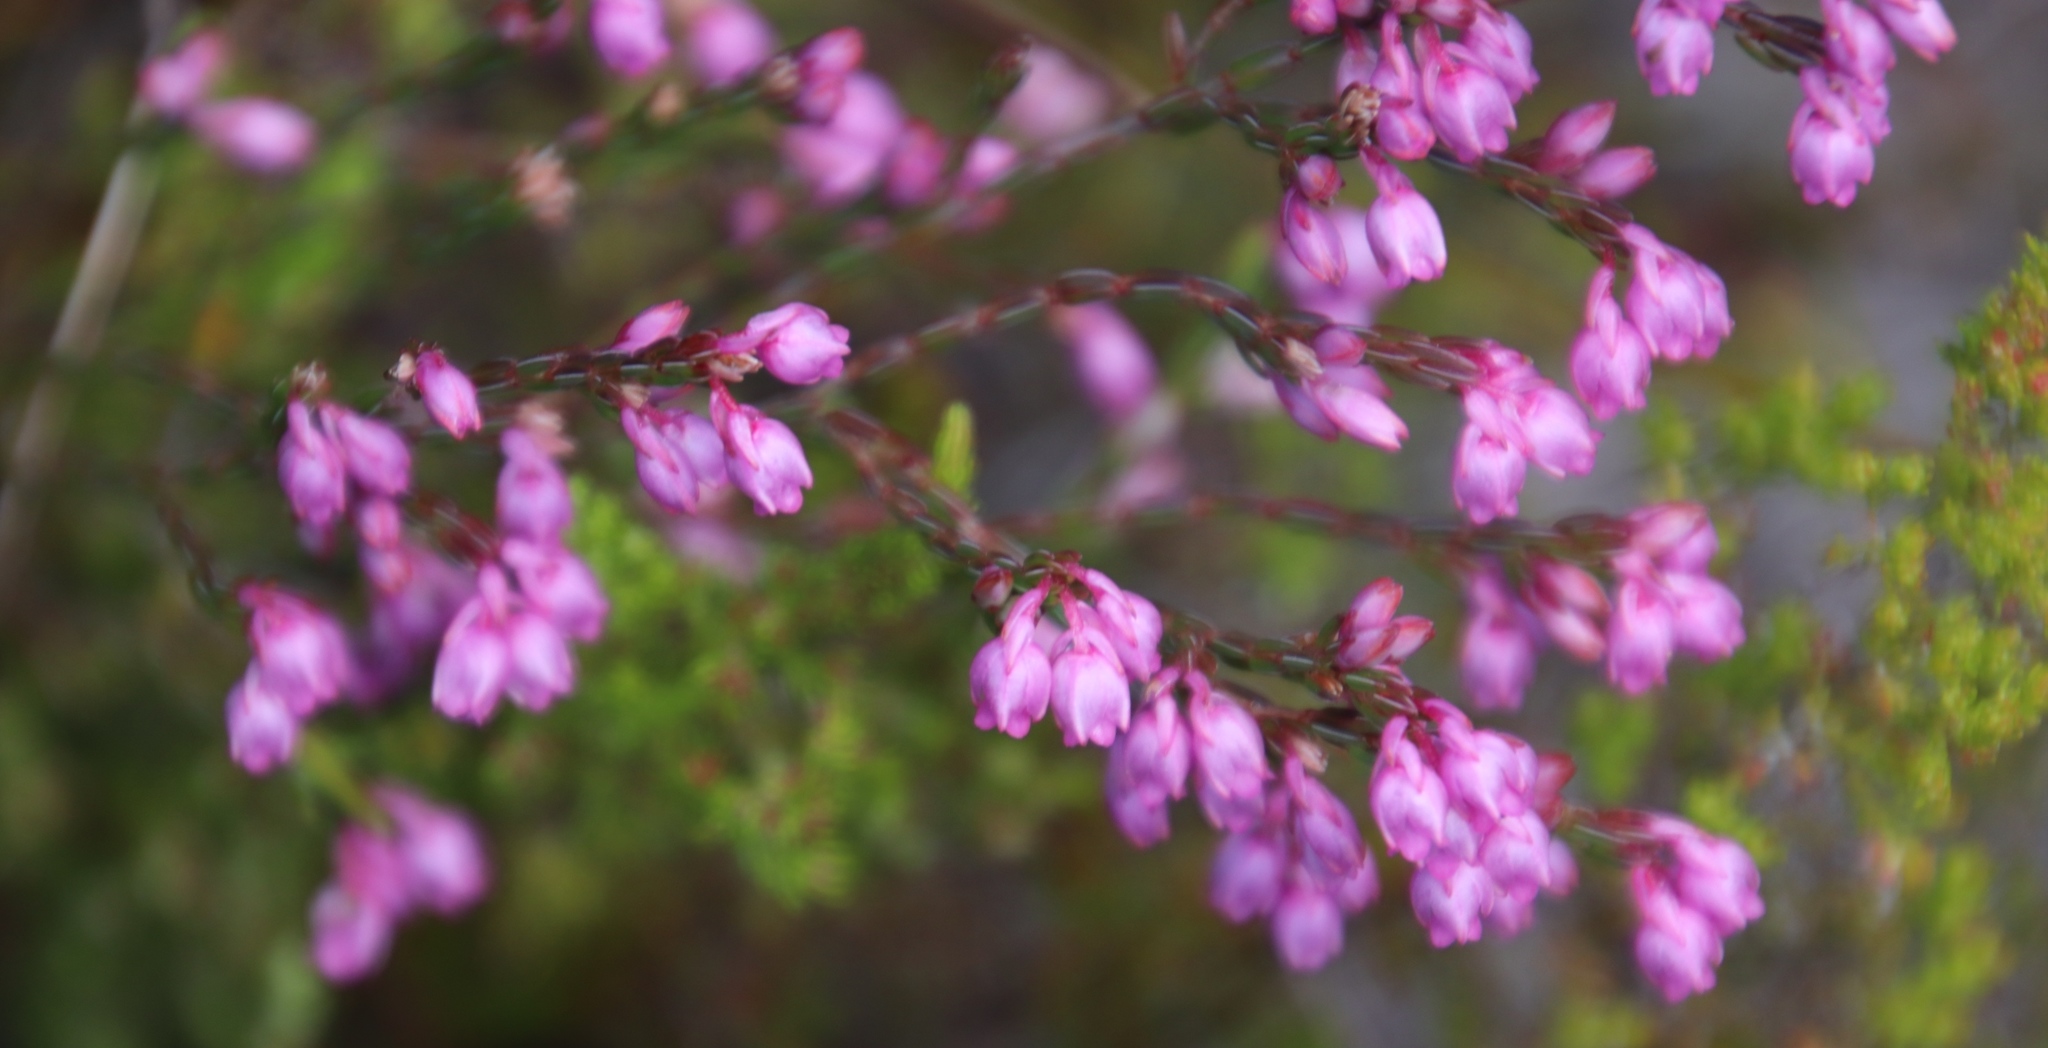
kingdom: Plantae
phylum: Tracheophyta
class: Magnoliopsida
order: Ericales
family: Ericaceae
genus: Erica
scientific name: Erica palliiflora
